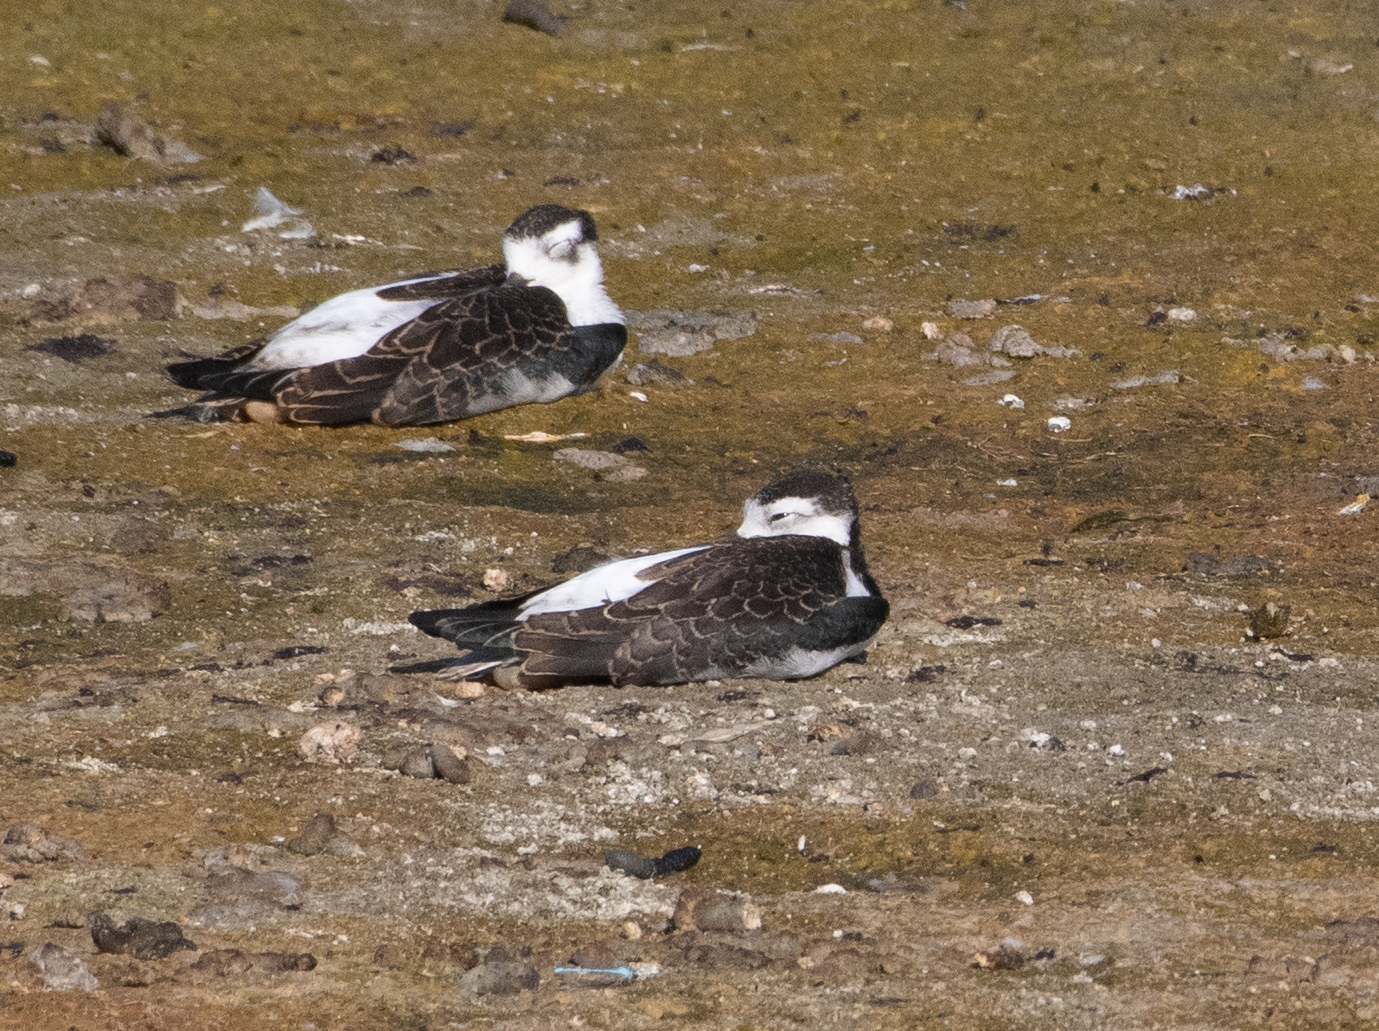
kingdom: Animalia
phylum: Chordata
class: Aves
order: Charadriiformes
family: Recurvirostridae
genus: Himantopus
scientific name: Himantopus mexicanus
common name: Black-necked stilt
